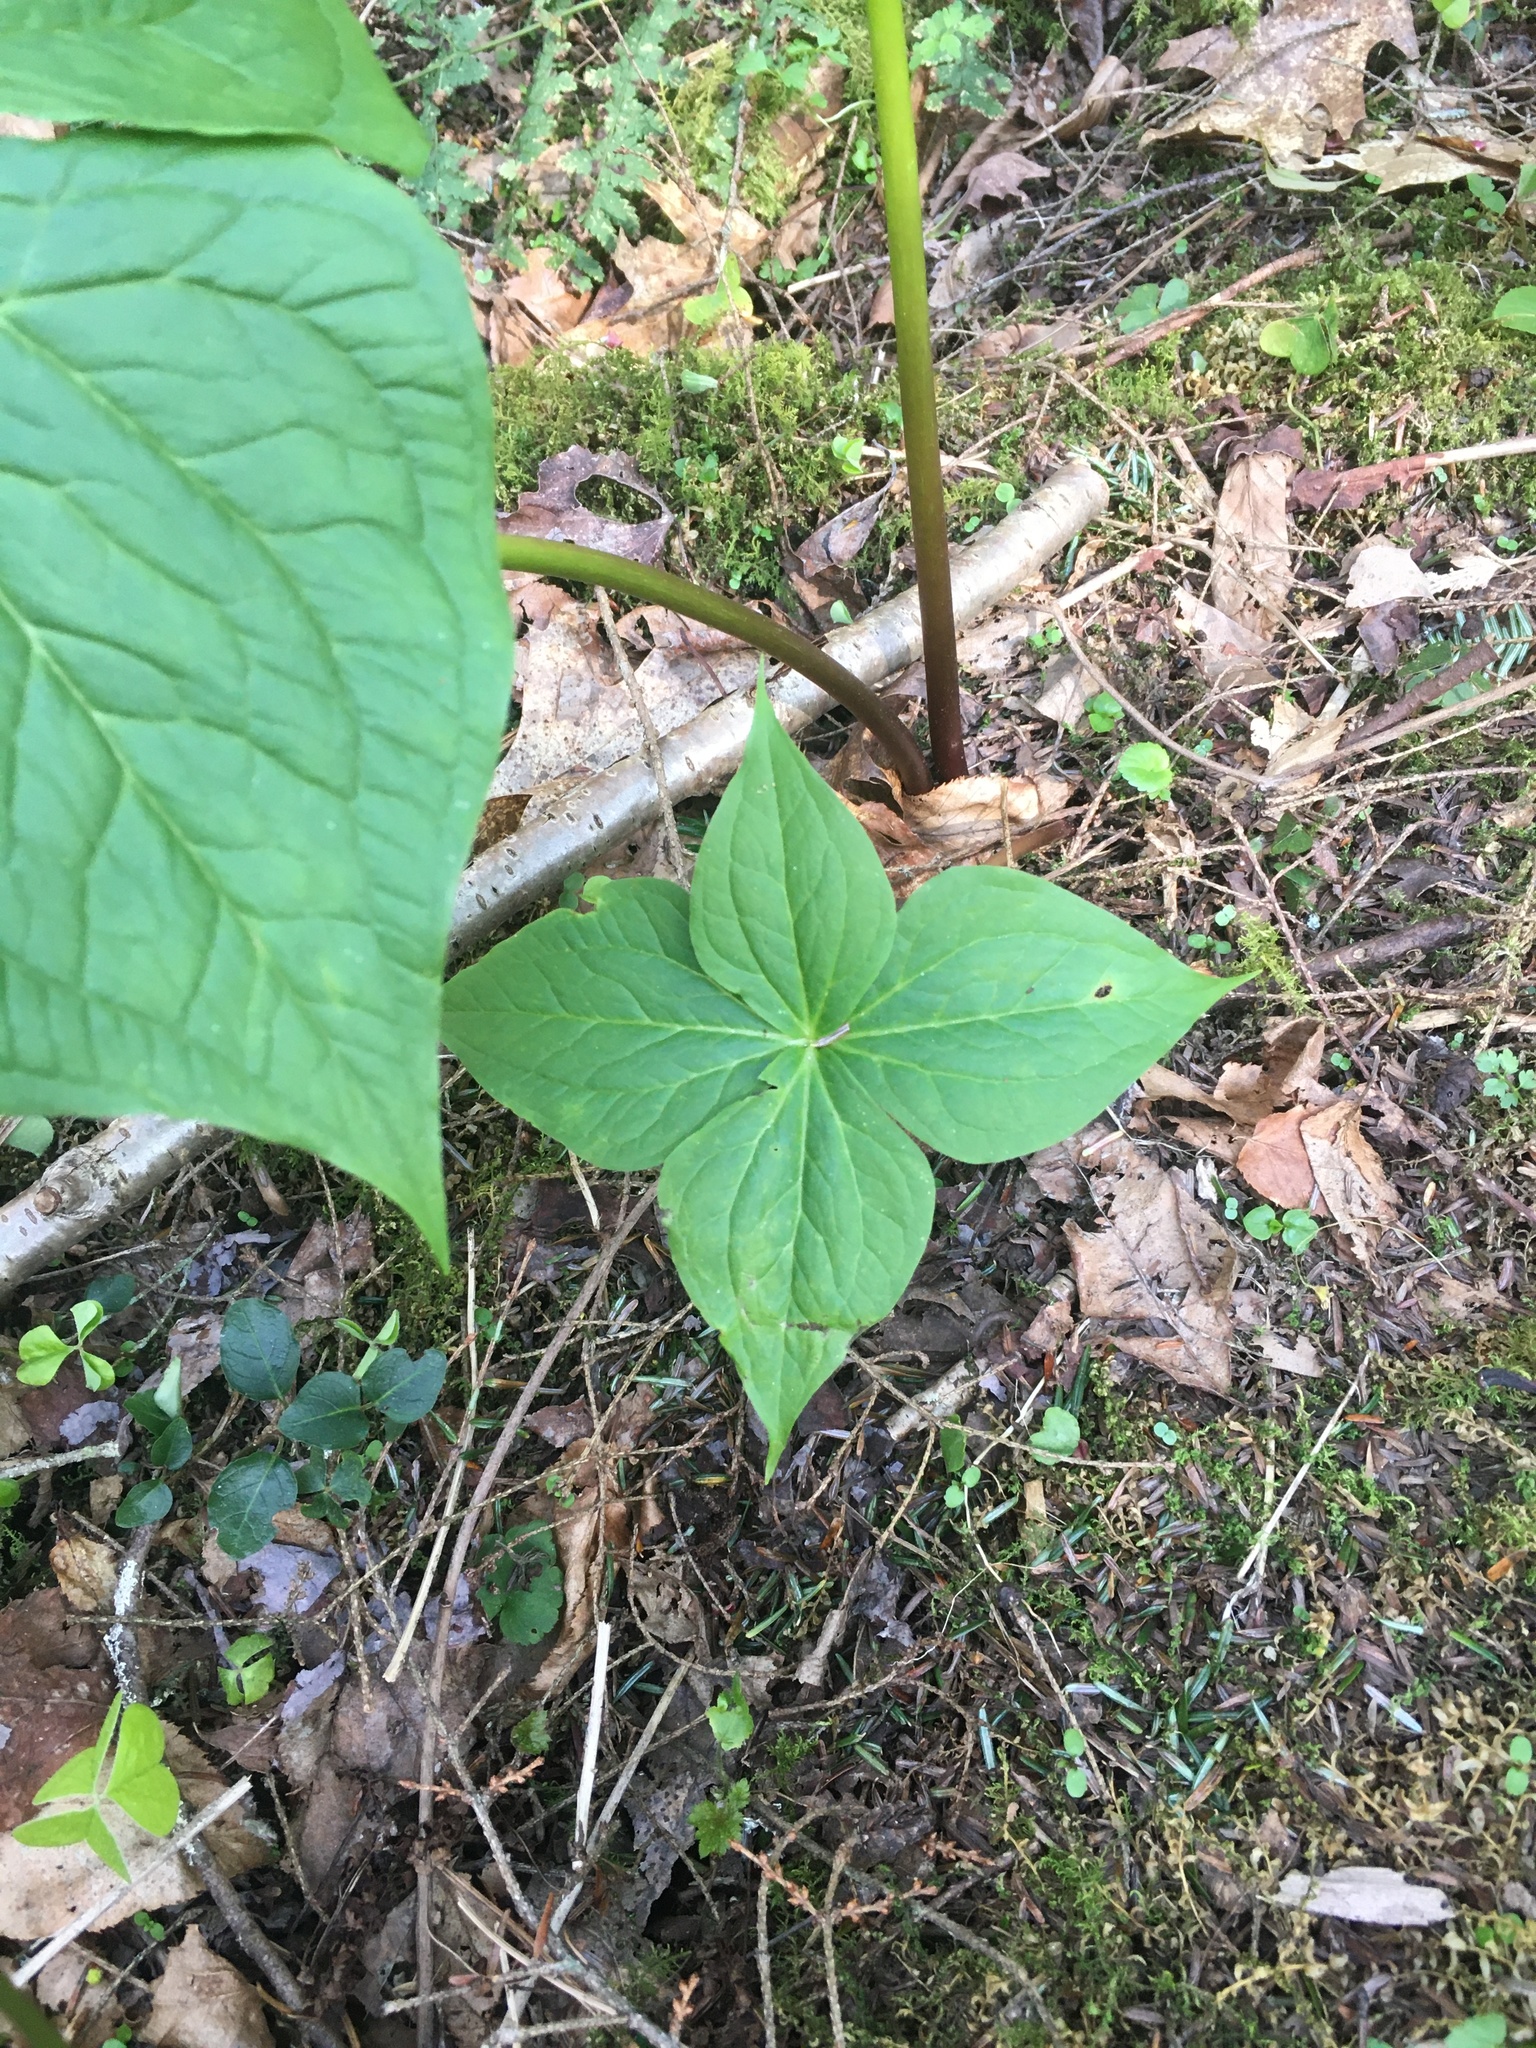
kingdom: Plantae
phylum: Tracheophyta
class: Liliopsida
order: Liliales
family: Melanthiaceae
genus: Trillium
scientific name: Trillium erectum
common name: Purple trillium
